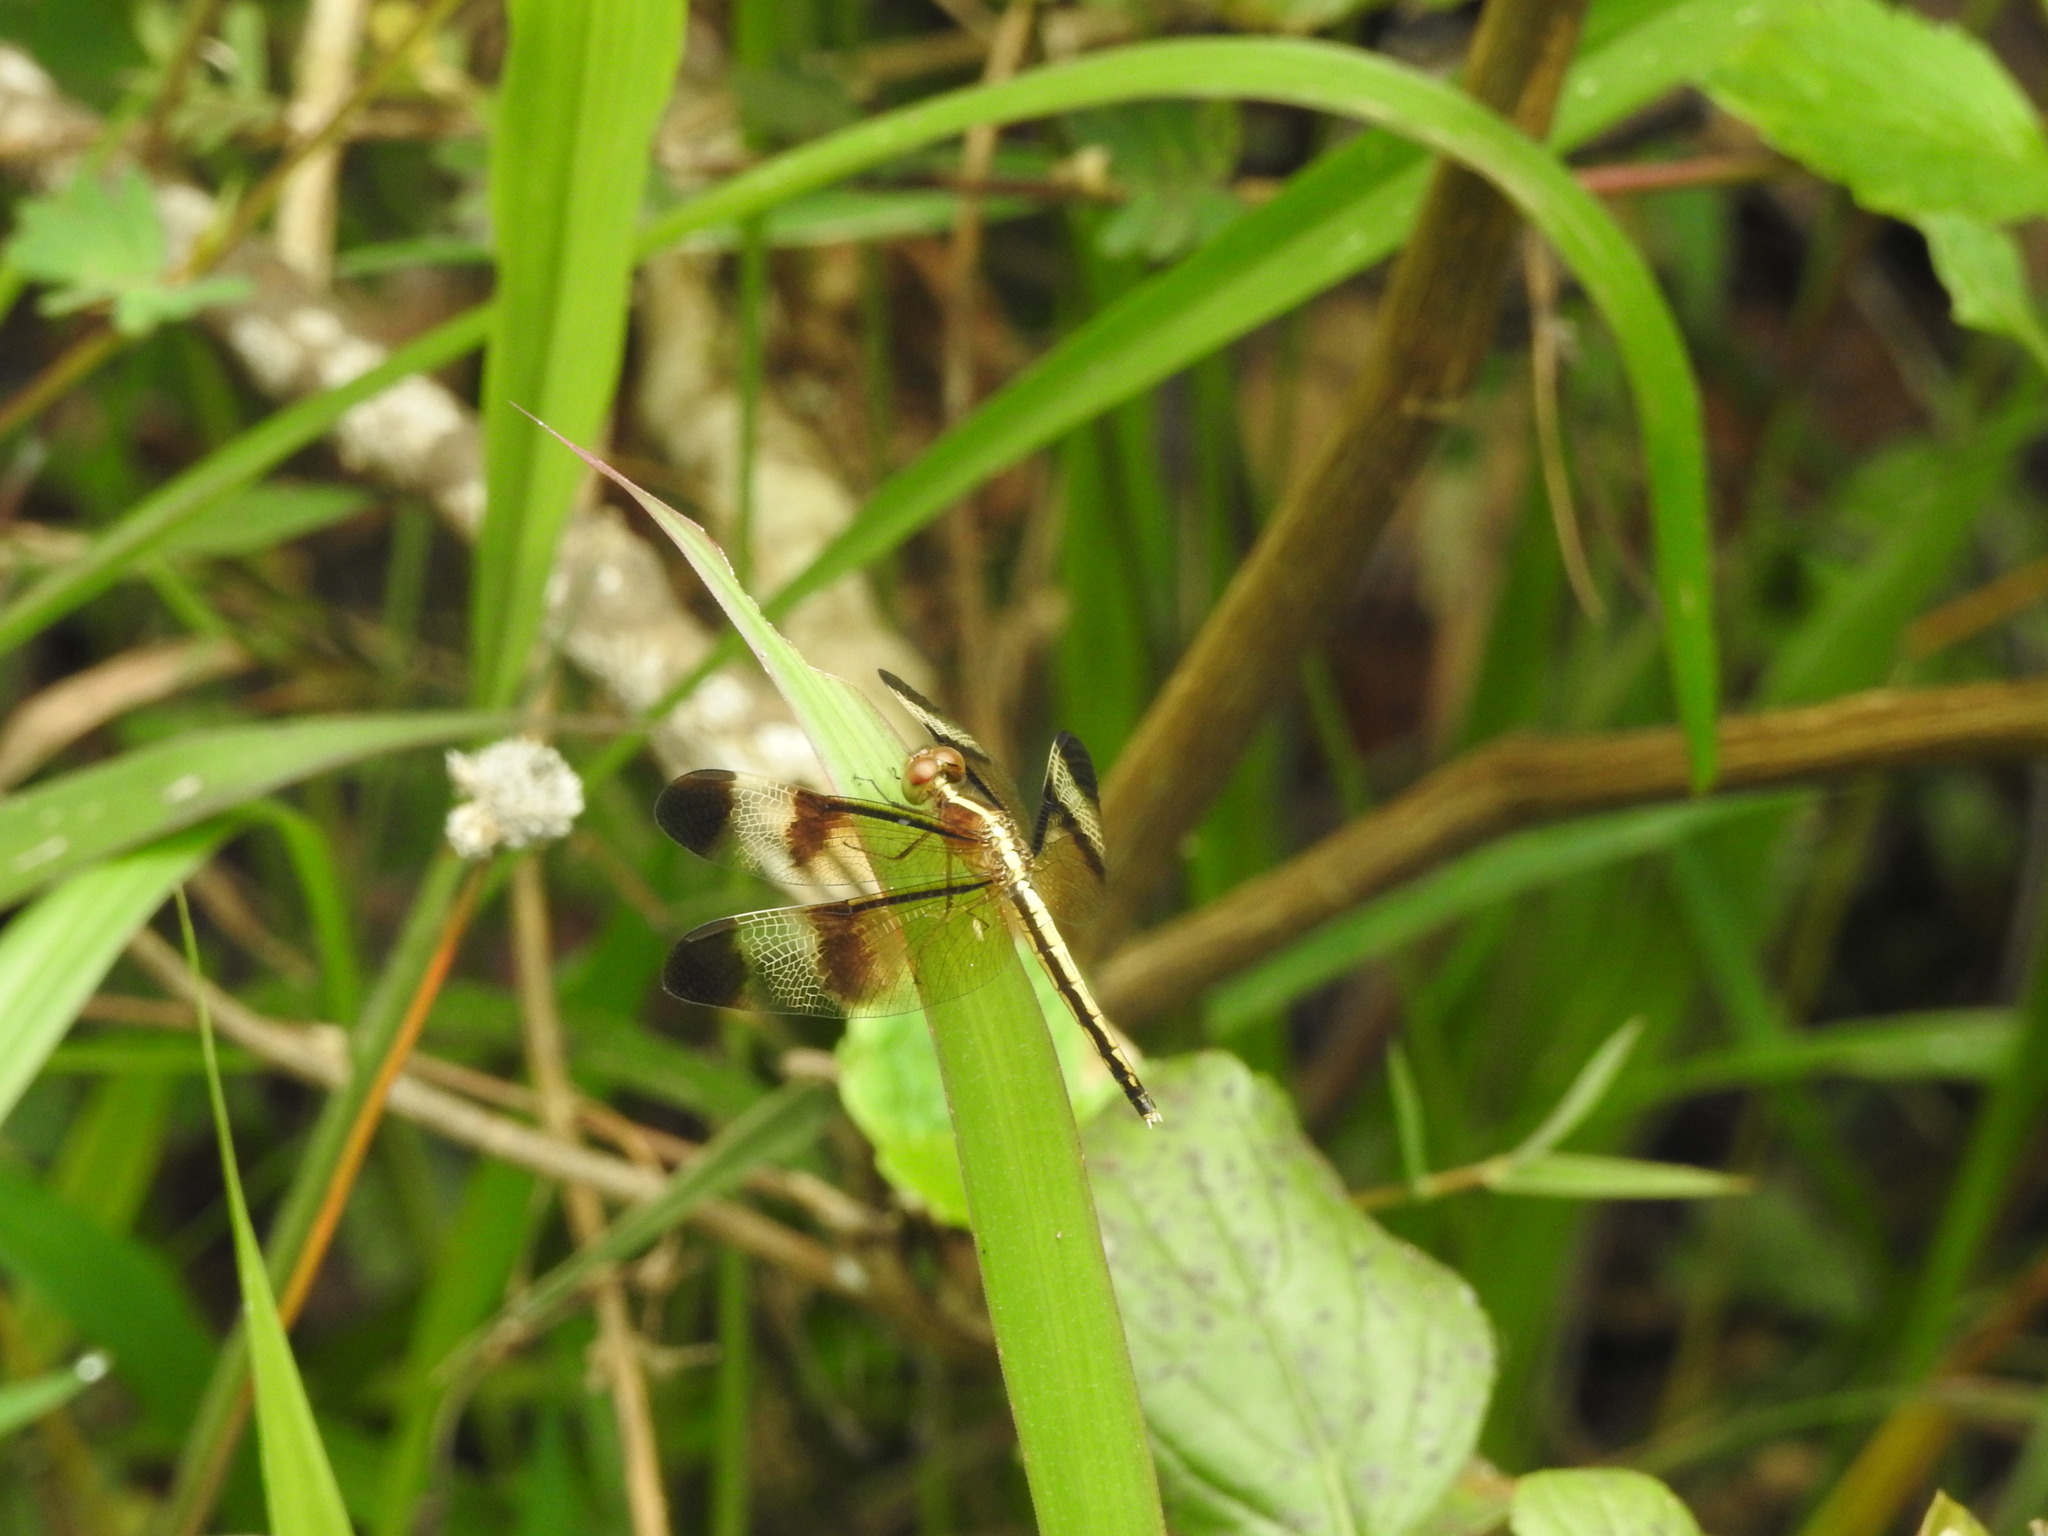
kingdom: Animalia
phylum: Arthropoda
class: Insecta
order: Odonata
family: Libellulidae
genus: Neurothemis
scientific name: Neurothemis tullia
